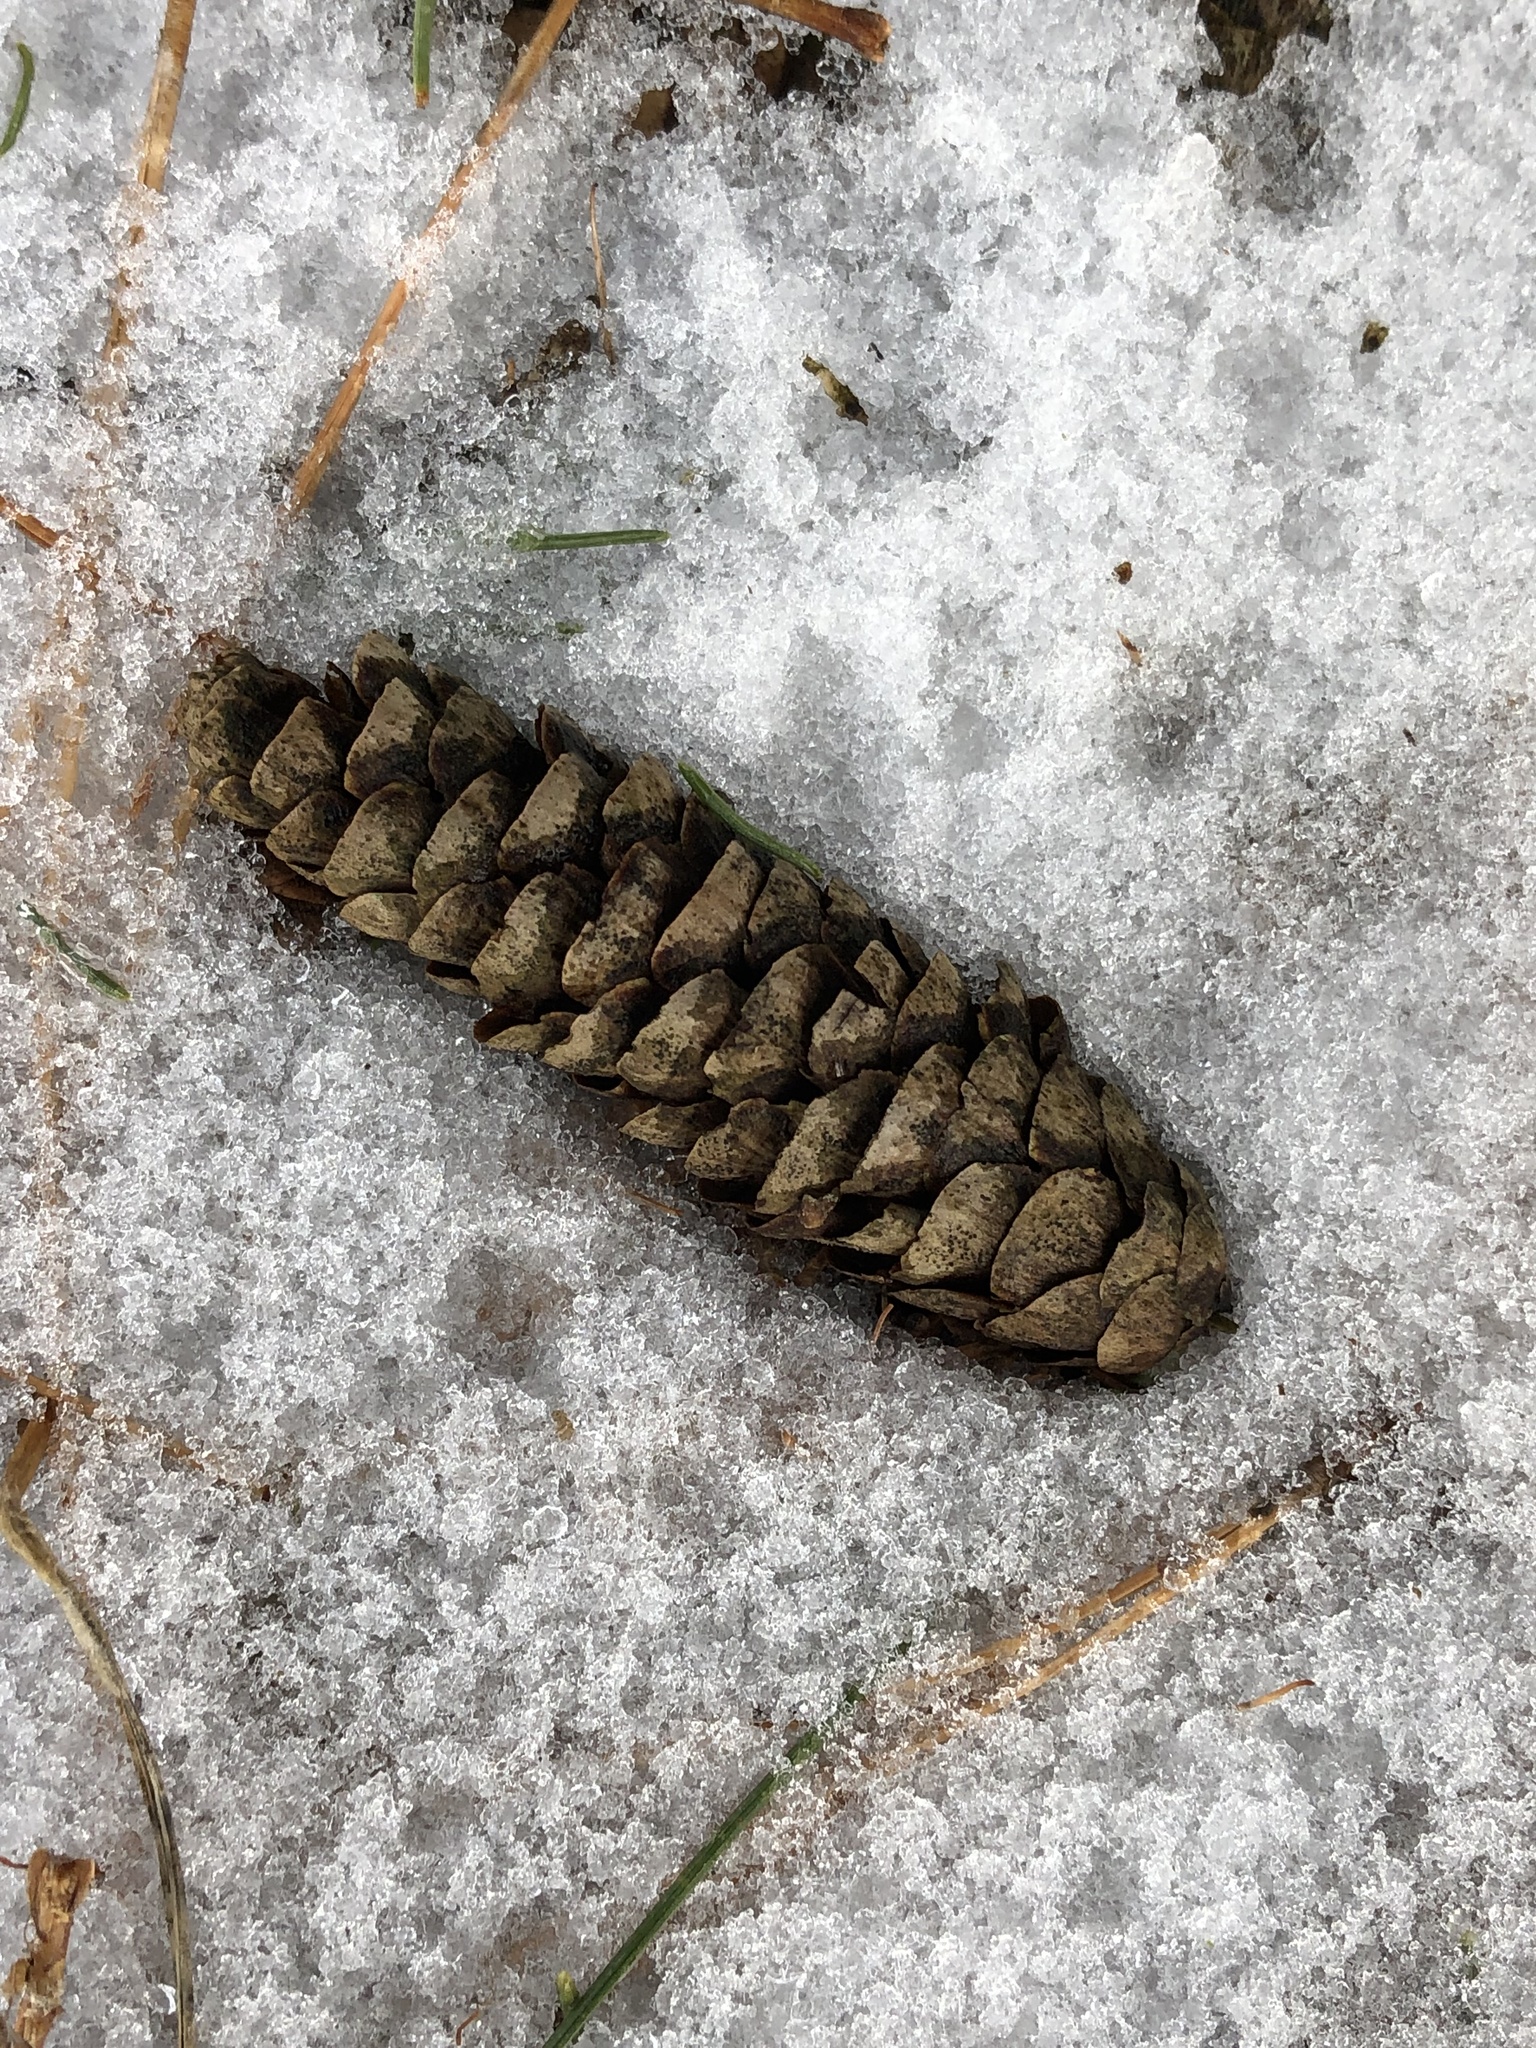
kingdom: Plantae
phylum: Tracheophyta
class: Pinopsida
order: Pinales
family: Pinaceae
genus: Picea
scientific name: Picea glauca
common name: White spruce
